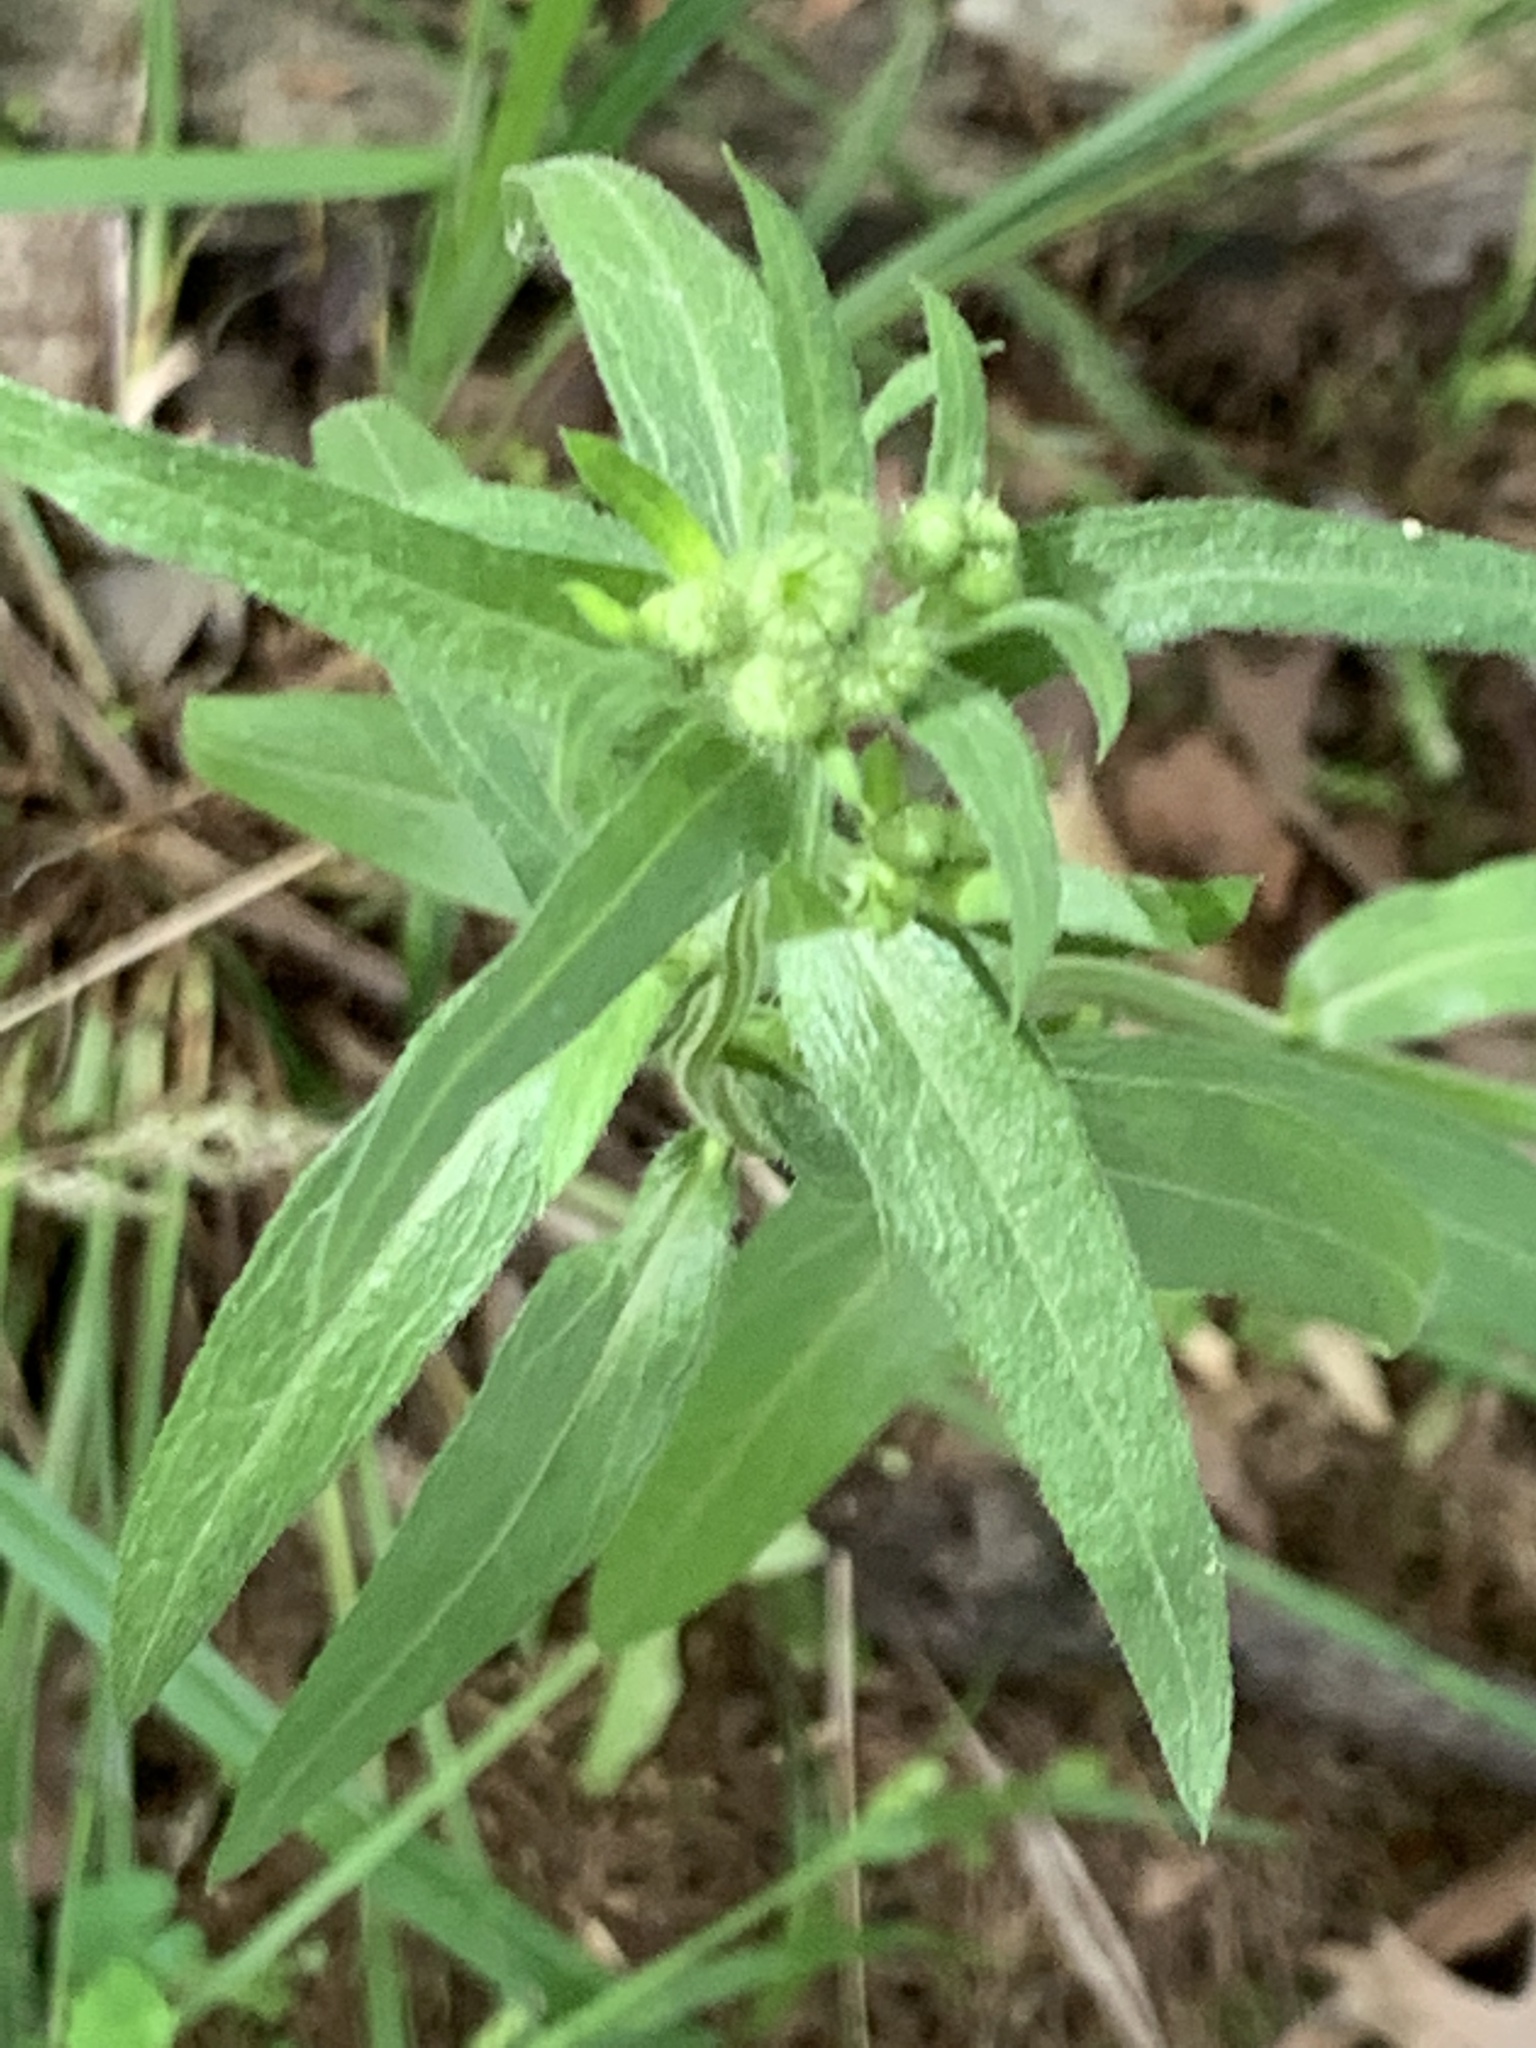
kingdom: Plantae
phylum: Tracheophyta
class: Magnoliopsida
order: Asterales
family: Asteraceae
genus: Erigeron
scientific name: Erigeron annuus
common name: Tall fleabane
